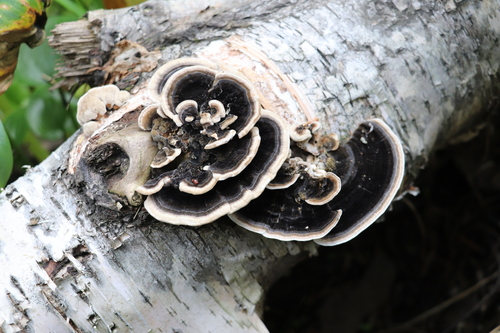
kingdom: Fungi
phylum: Basidiomycota
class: Agaricomycetes
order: Polyporales
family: Polyporaceae
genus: Trametes
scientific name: Trametes versicolor
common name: Turkeytail
